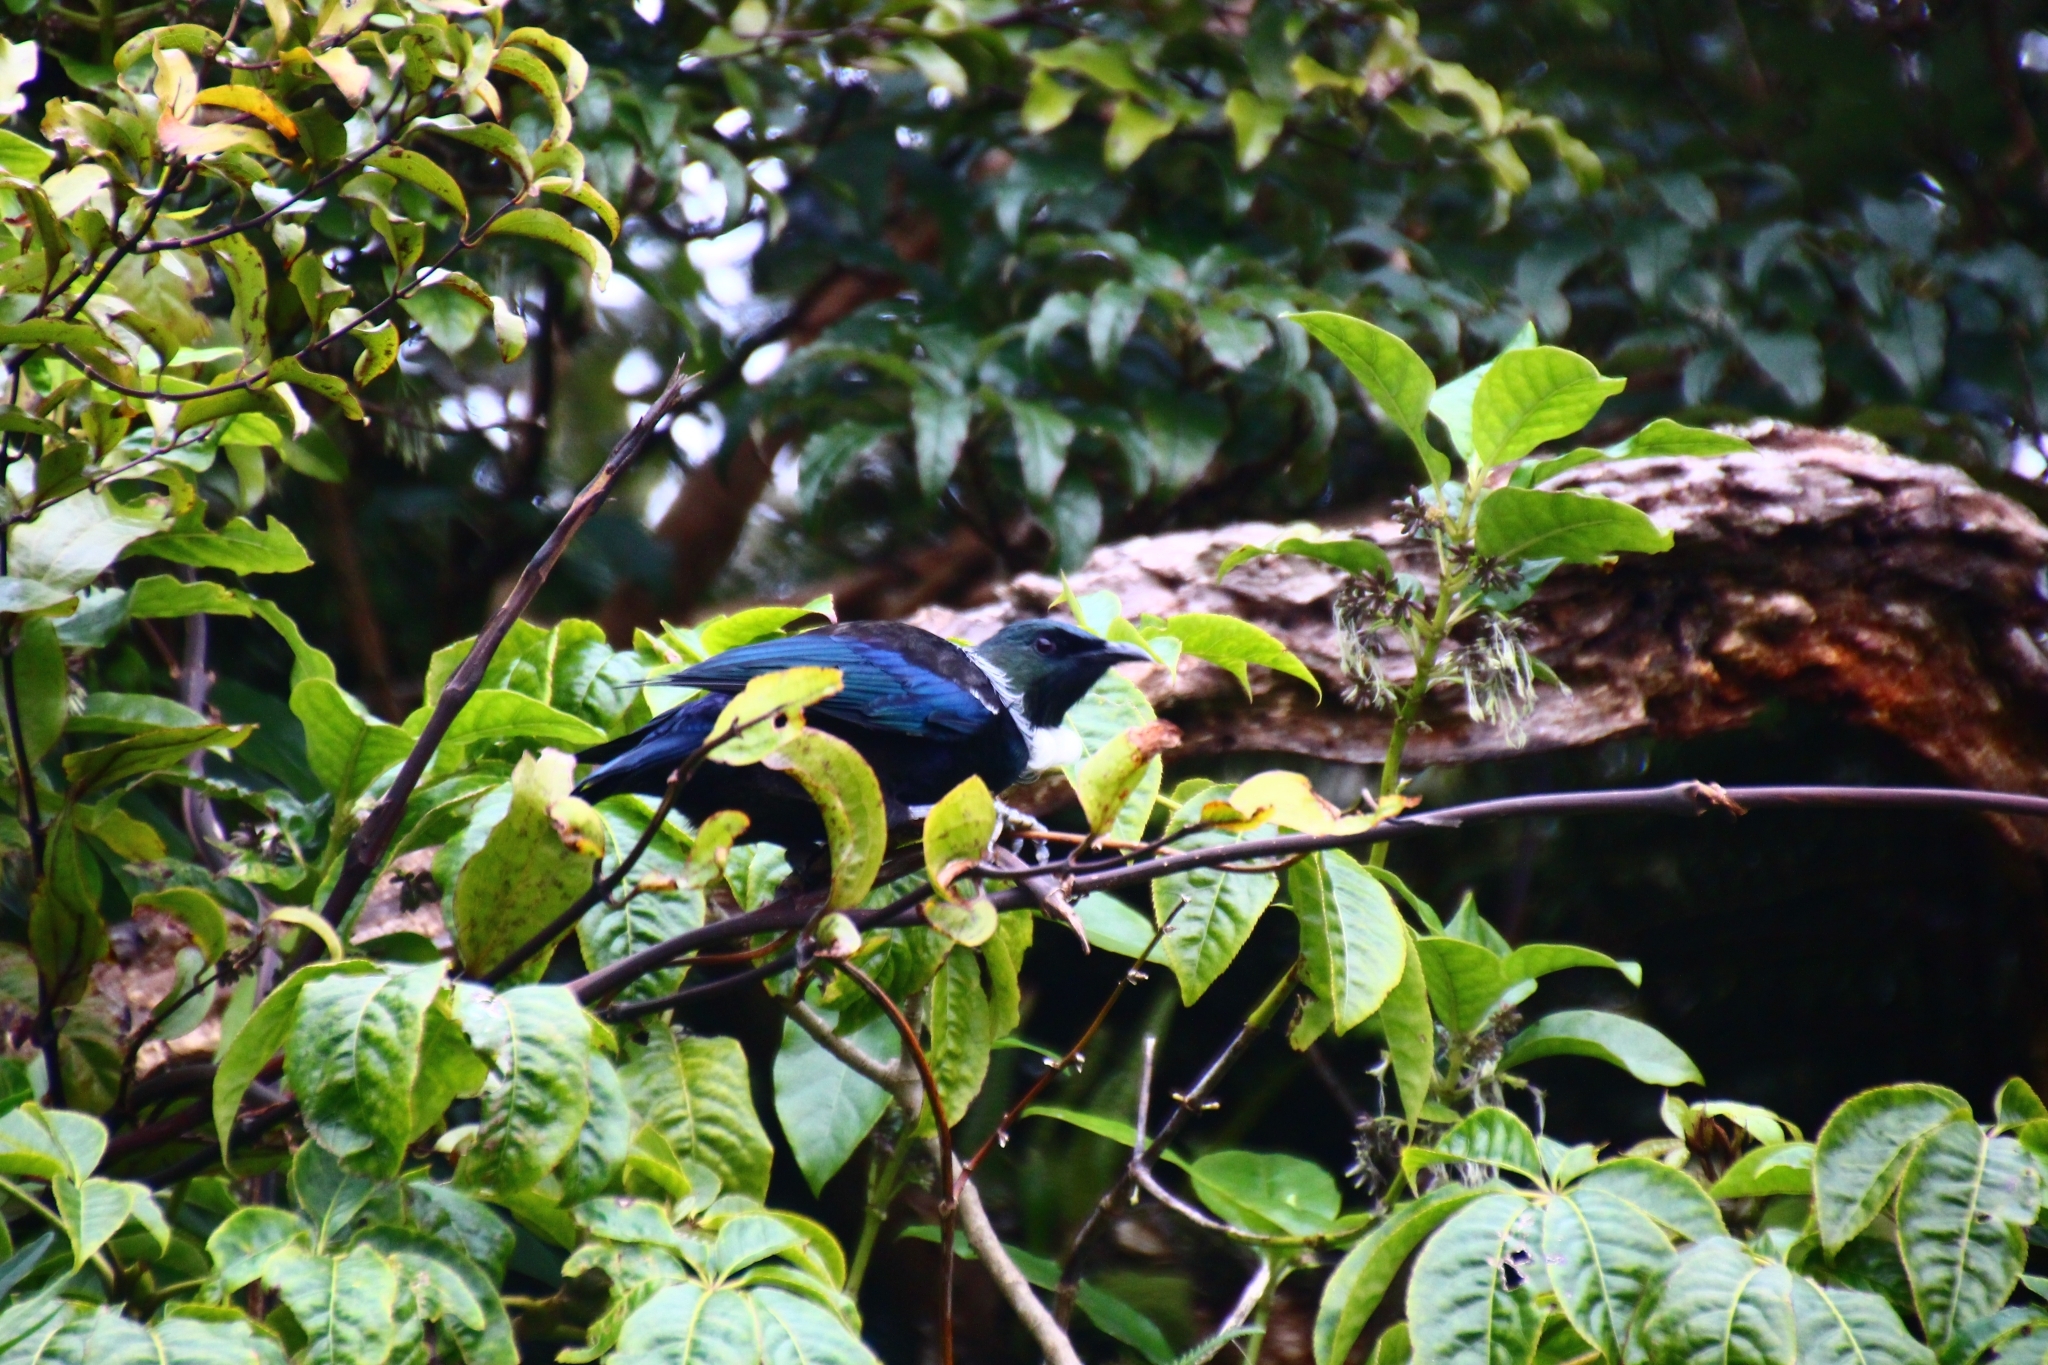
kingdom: Animalia
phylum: Chordata
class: Aves
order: Passeriformes
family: Meliphagidae
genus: Prosthemadera
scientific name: Prosthemadera novaeseelandiae
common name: Tui
